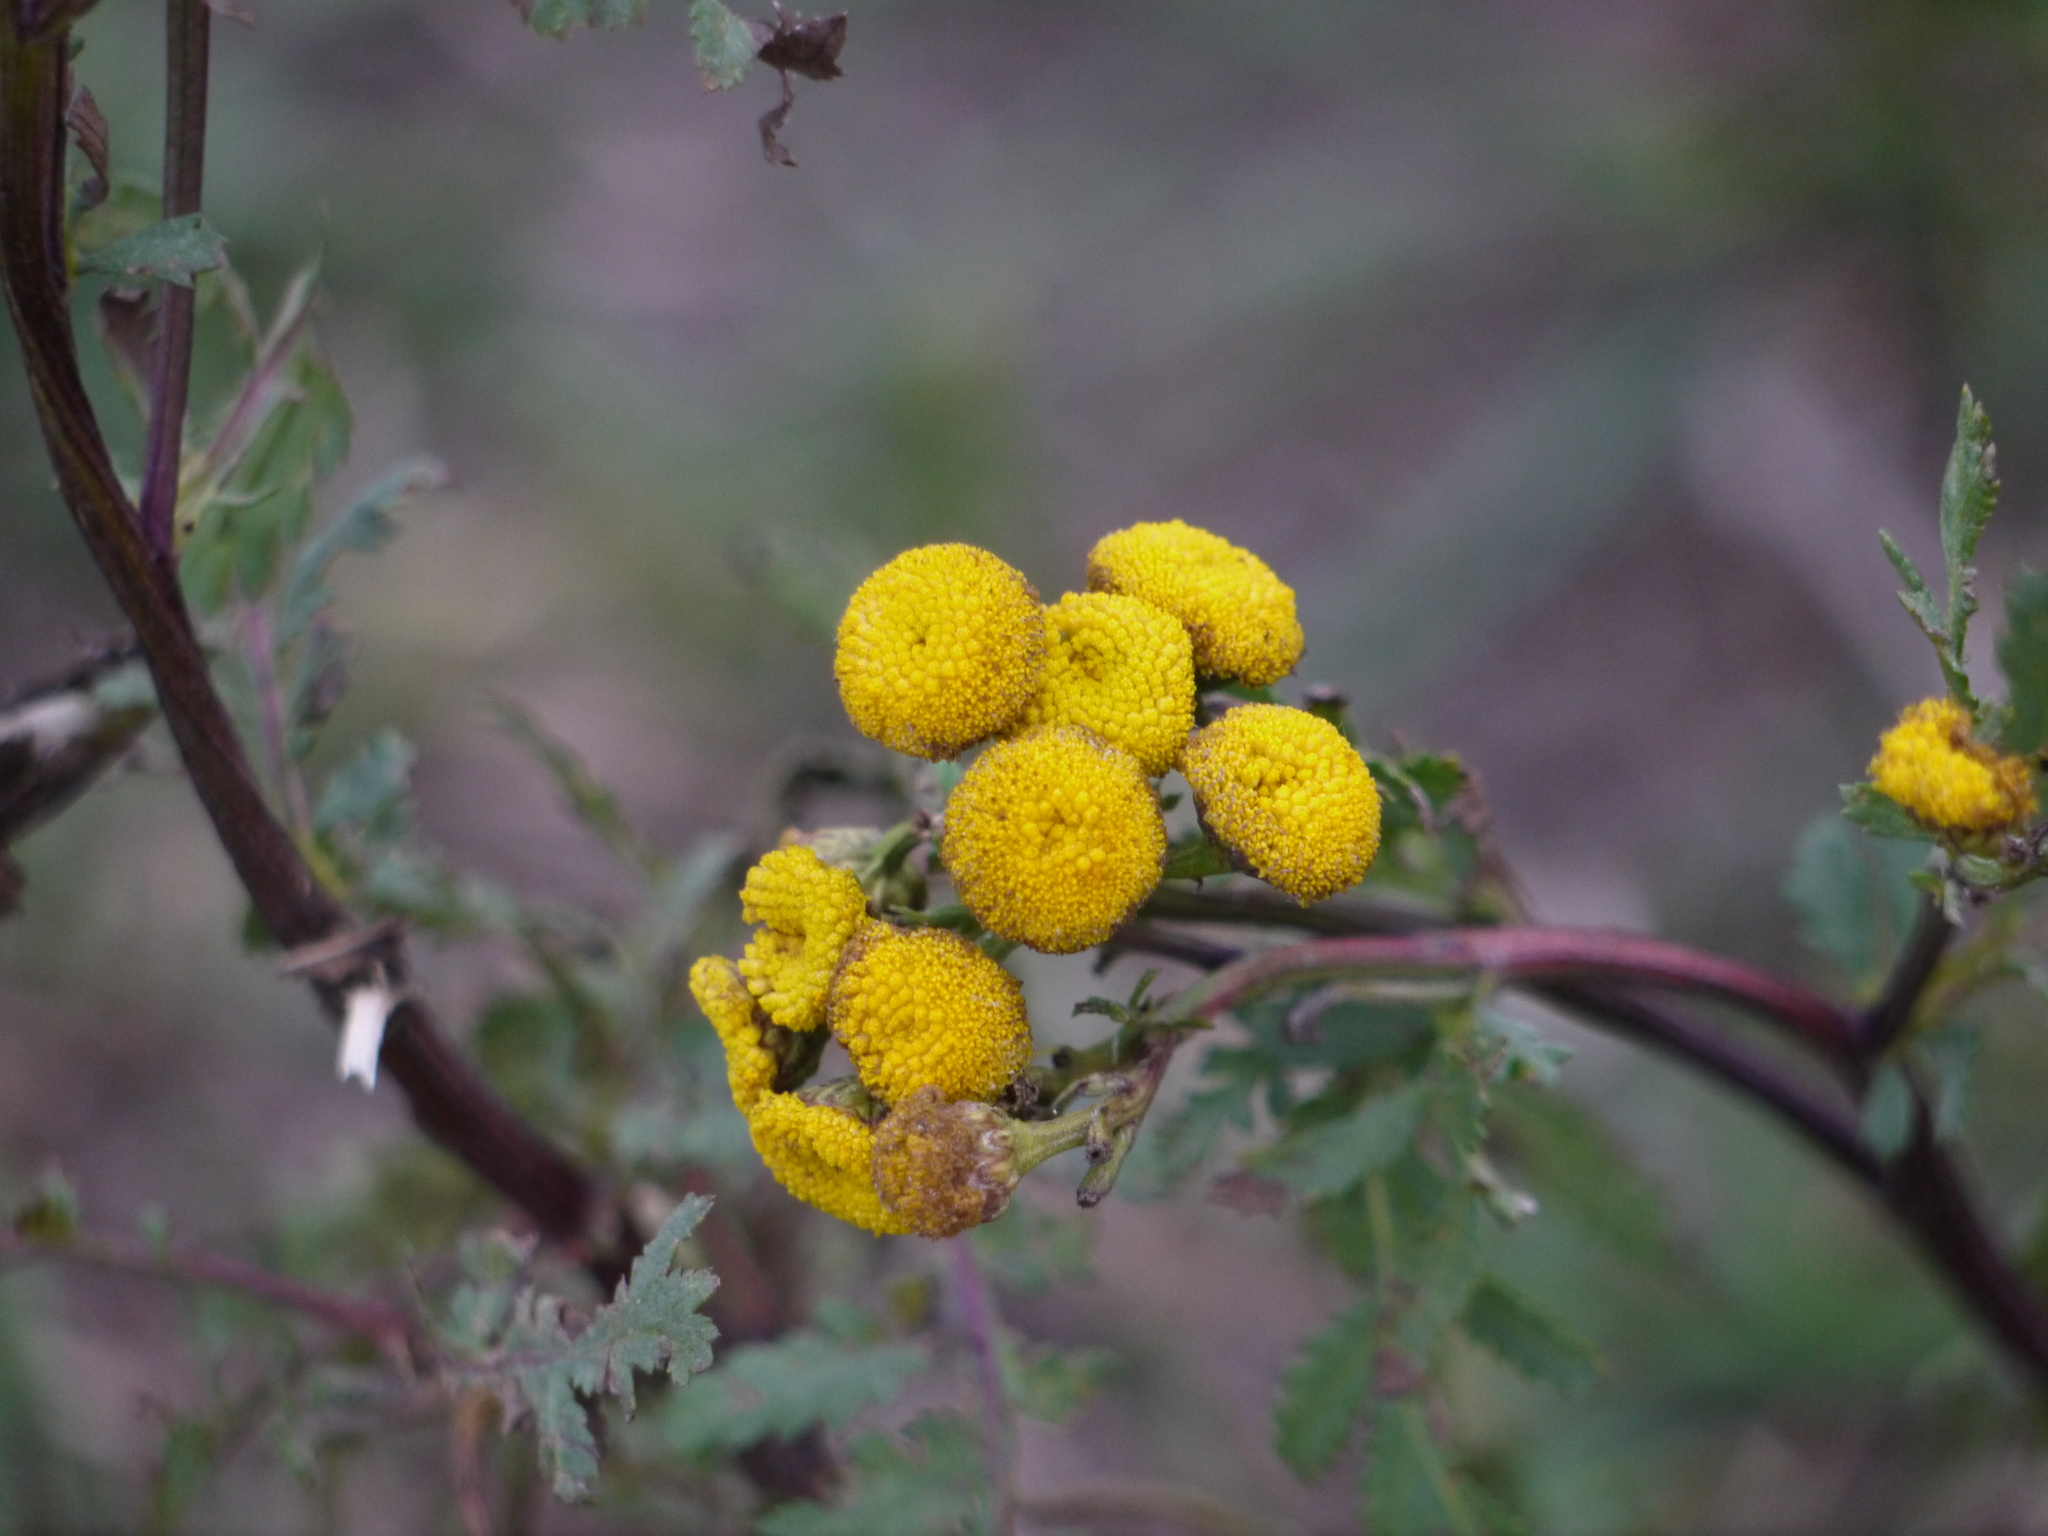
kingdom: Plantae
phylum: Tracheophyta
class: Magnoliopsida
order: Asterales
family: Asteraceae
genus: Tanacetum
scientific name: Tanacetum vulgare
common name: Common tansy
